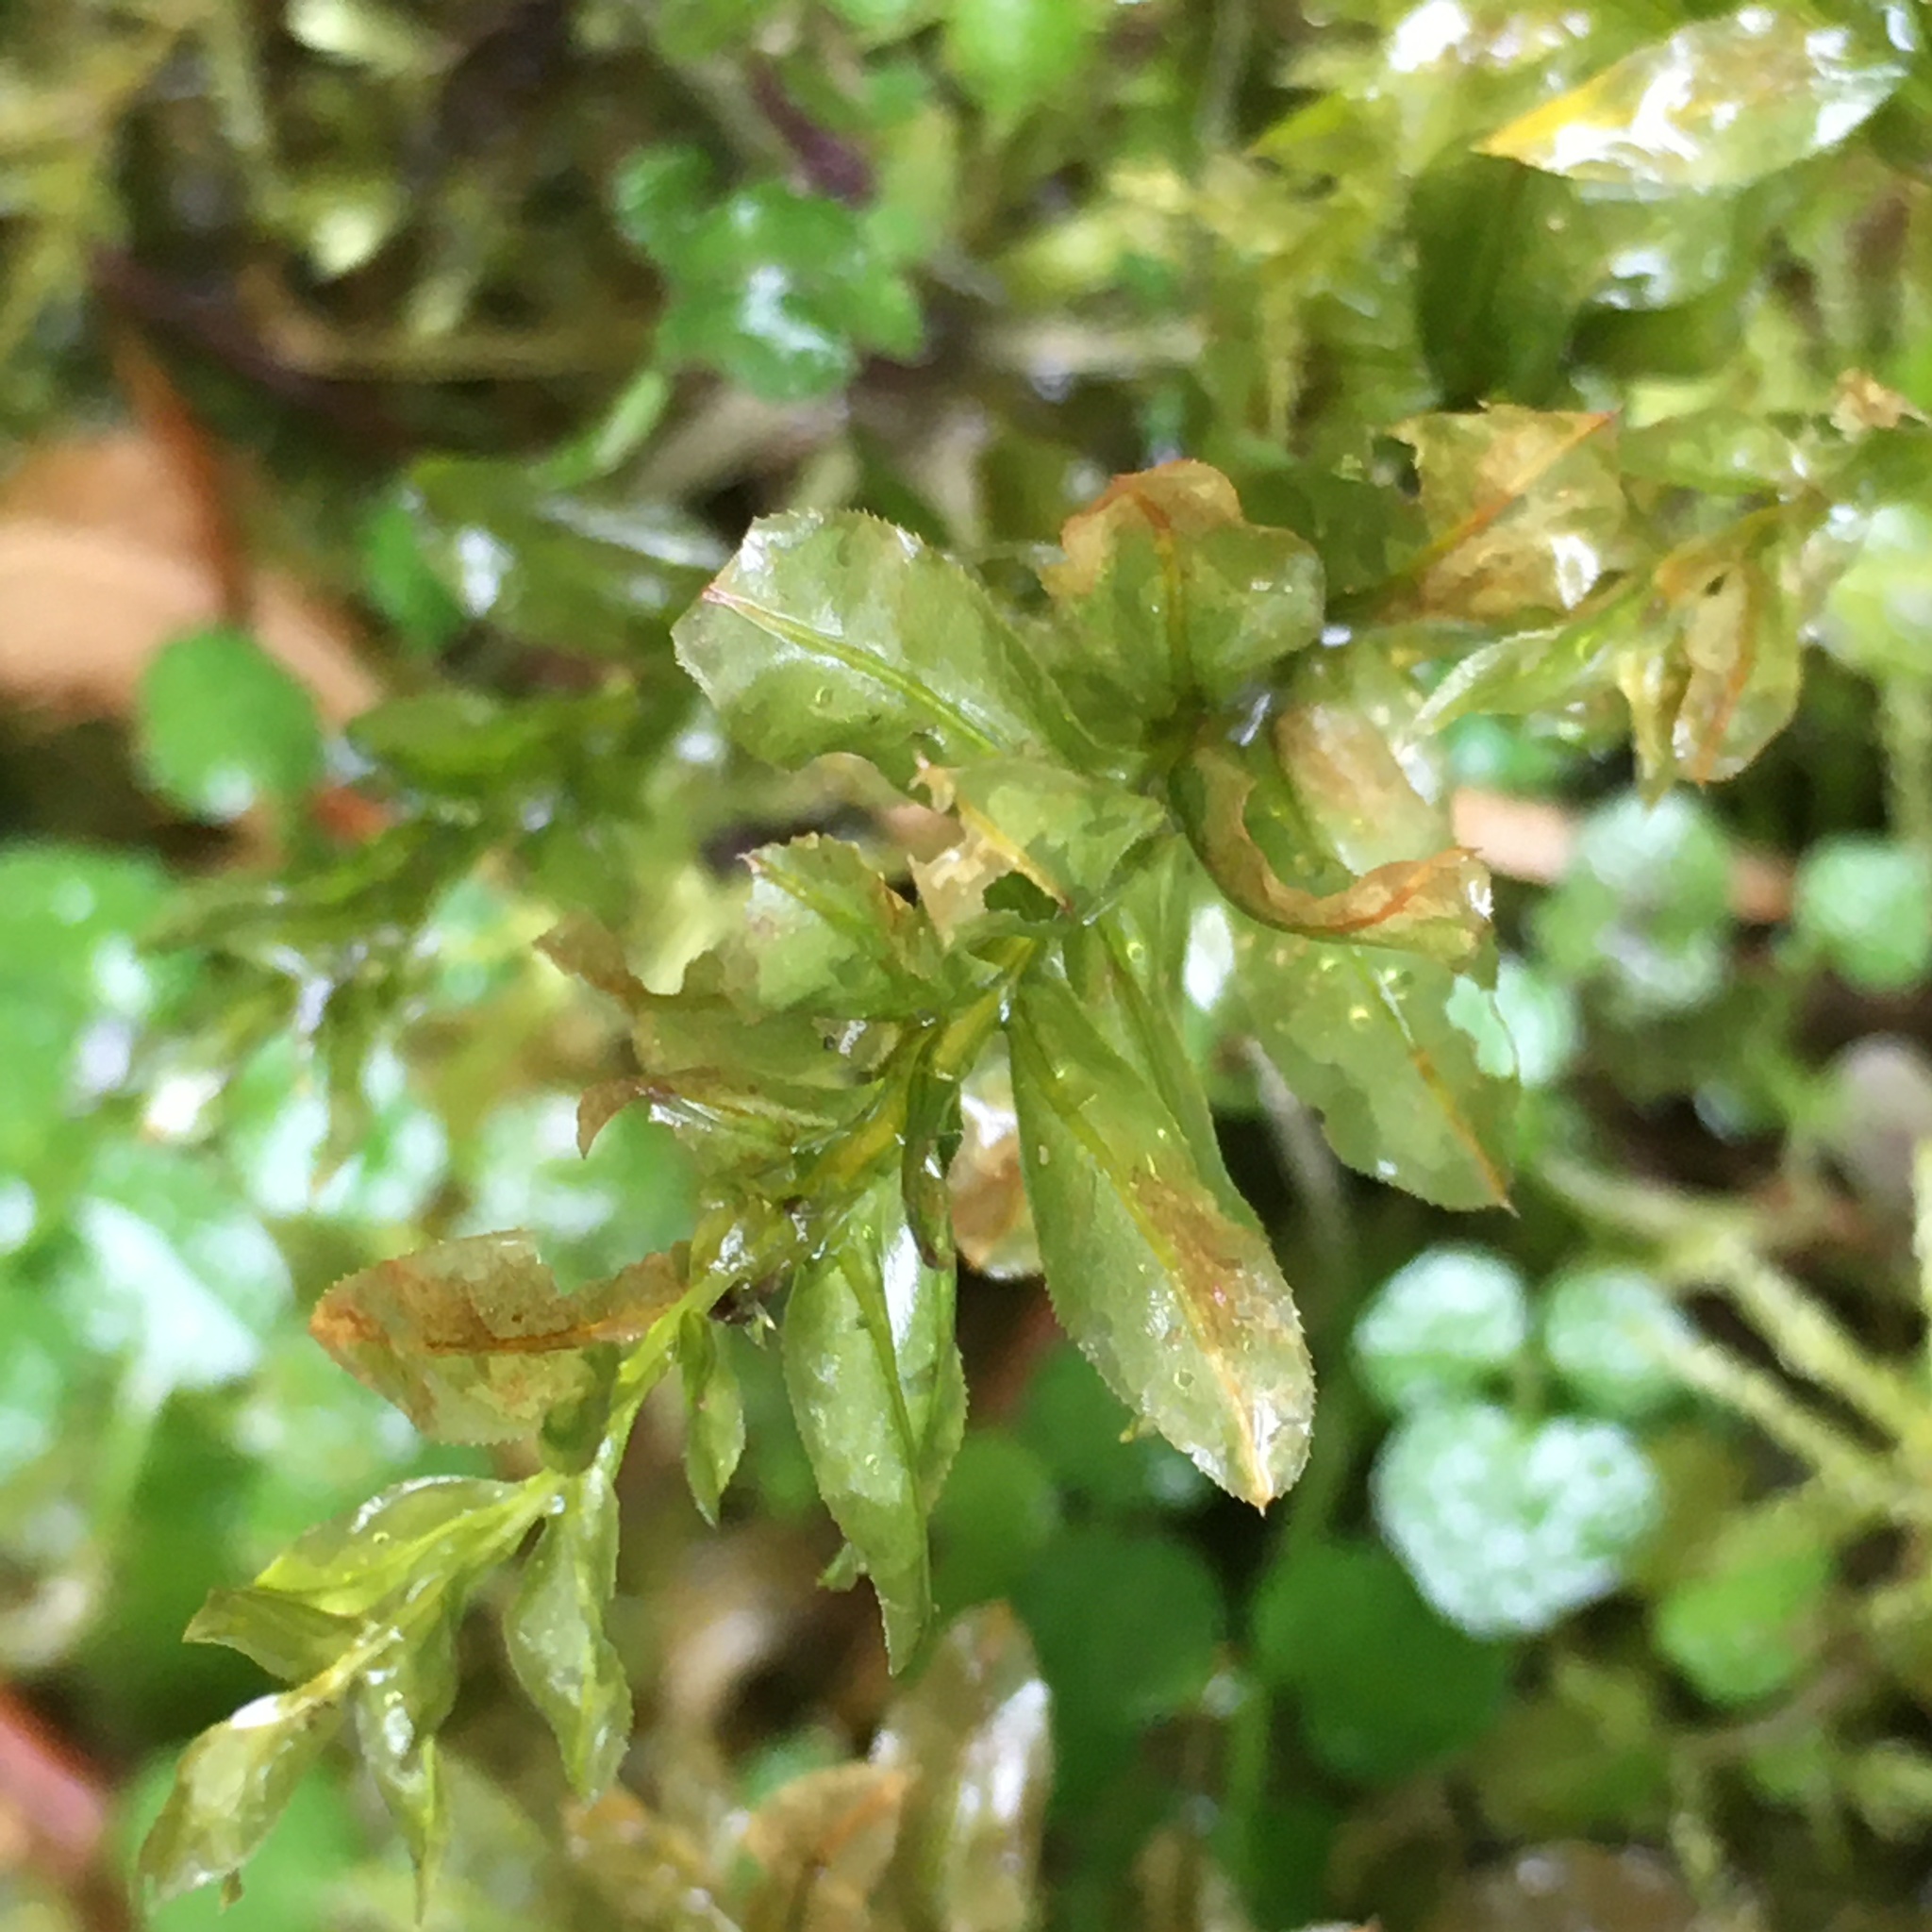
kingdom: Plantae
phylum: Bryophyta
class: Bryopsida
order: Bryales
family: Mniaceae
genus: Plagiomnium
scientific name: Plagiomnium insigne
